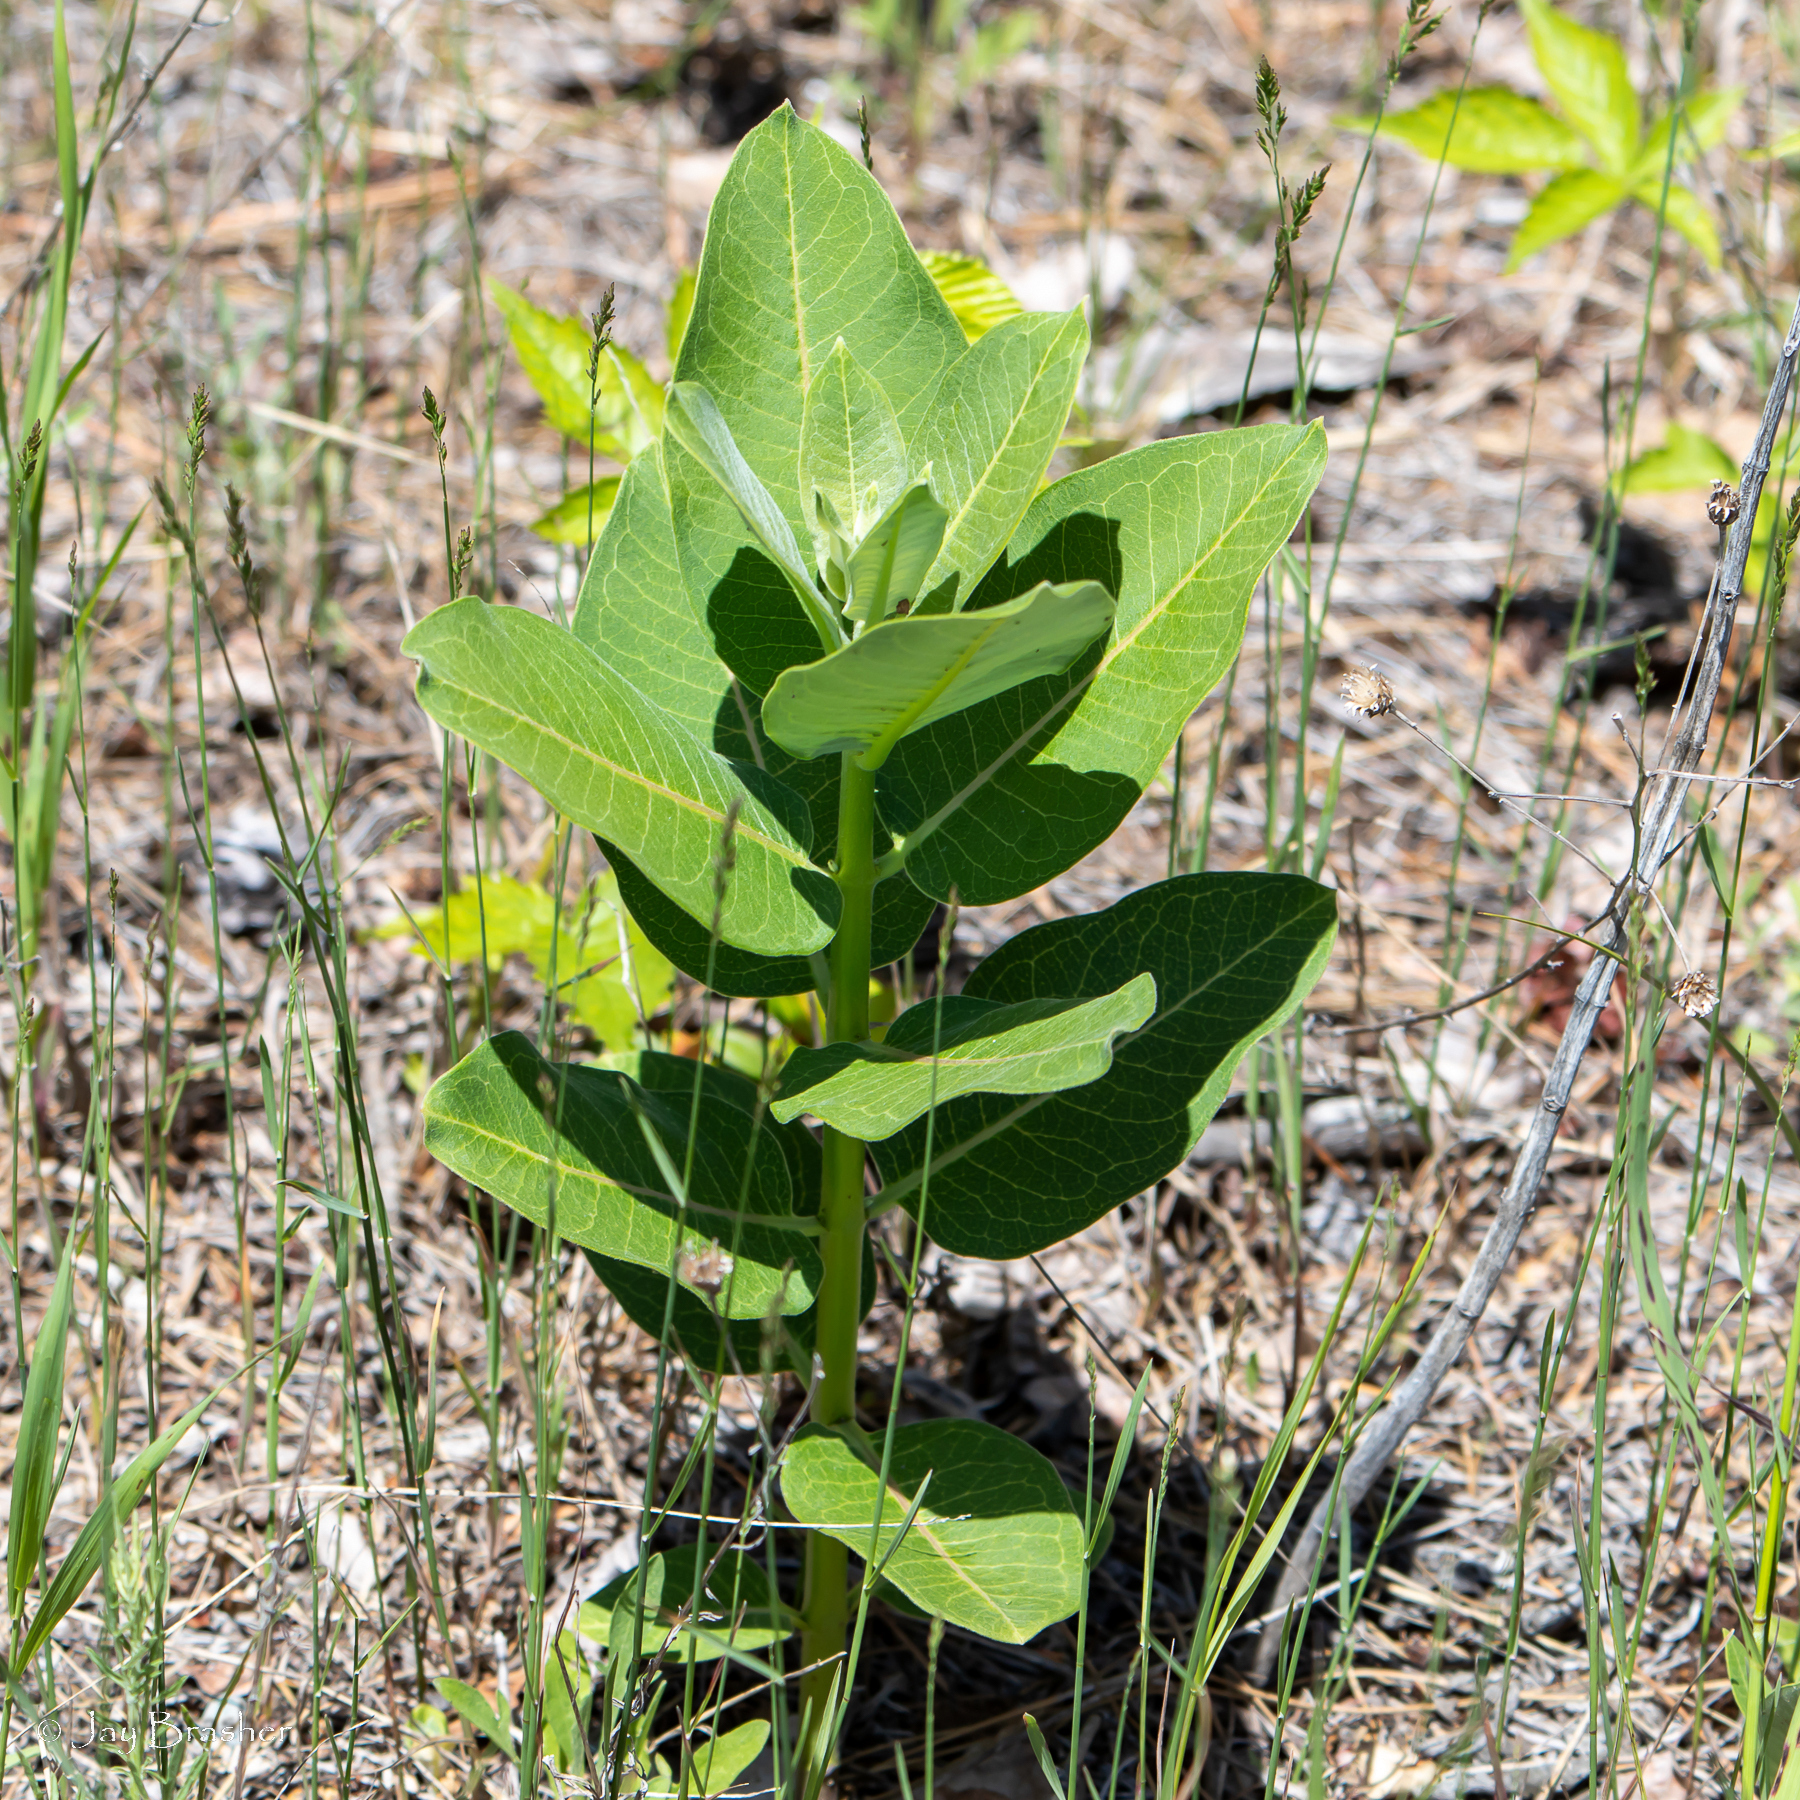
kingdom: Plantae
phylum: Tracheophyta
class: Magnoliopsida
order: Gentianales
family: Apocynaceae
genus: Asclepias
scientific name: Asclepias syriaca
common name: Common milkweed
